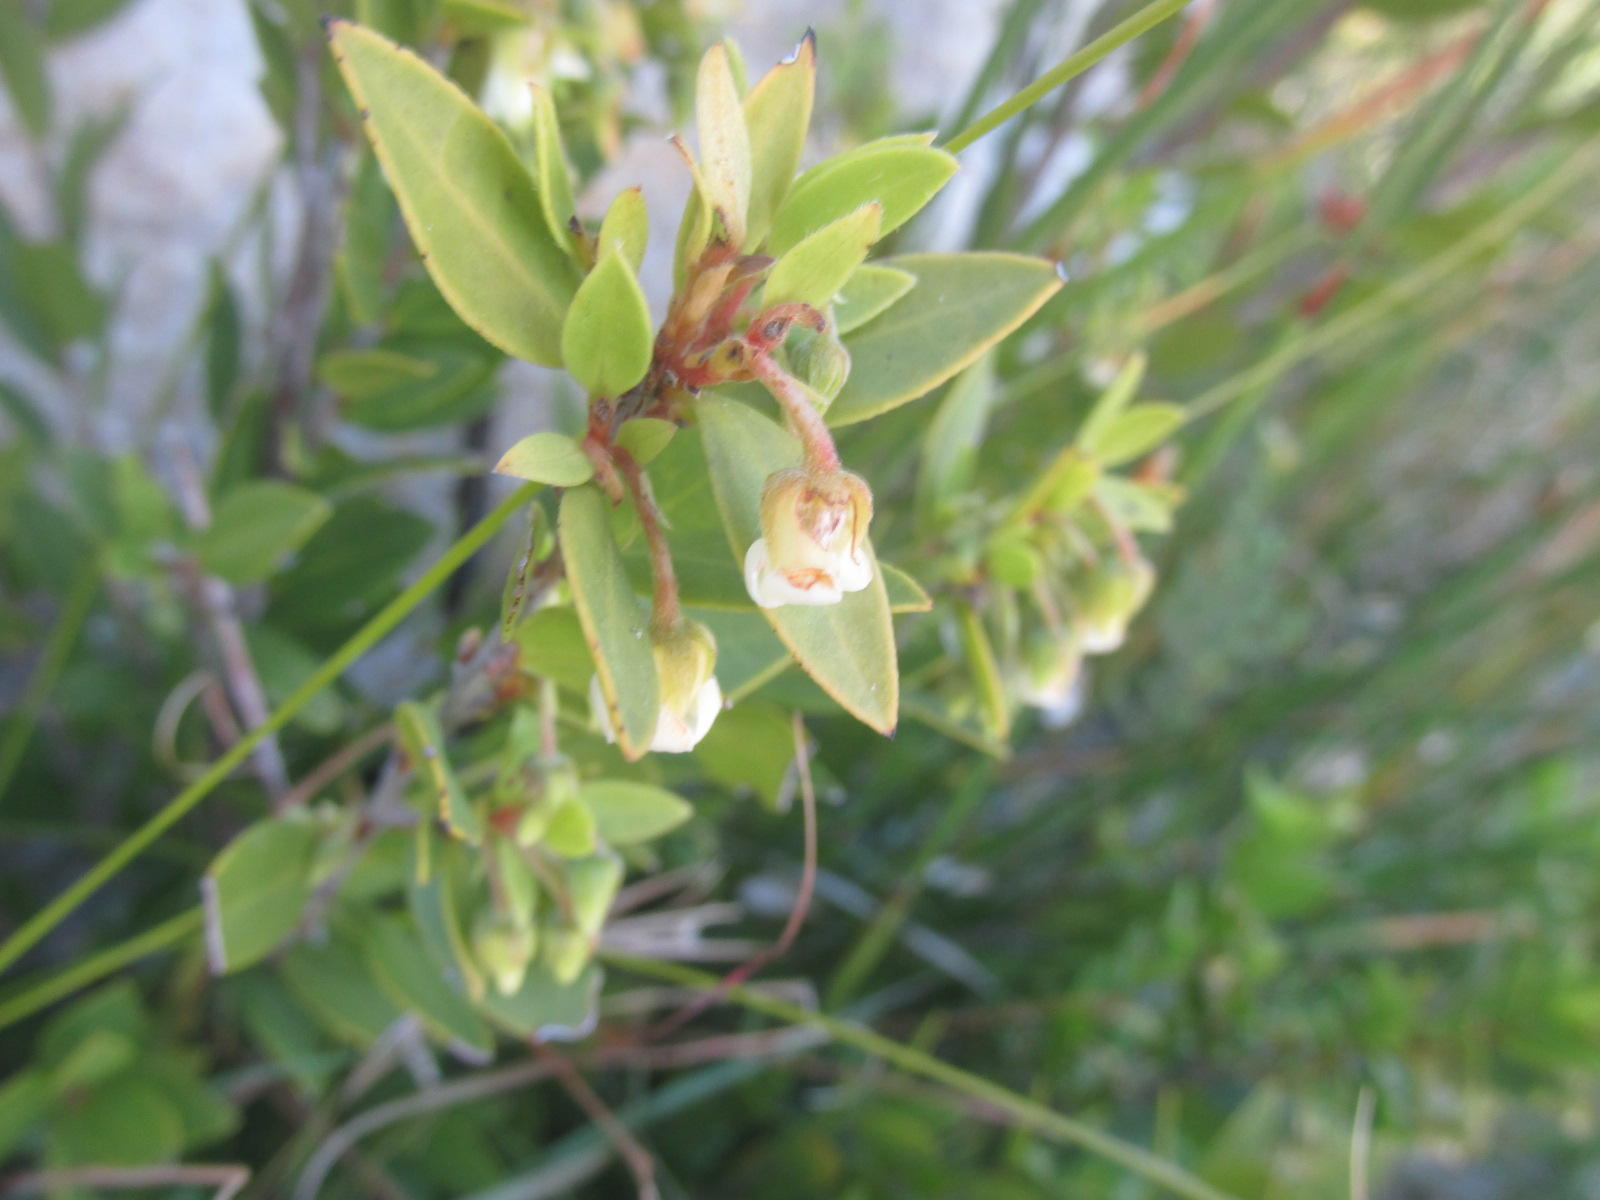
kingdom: Plantae
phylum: Tracheophyta
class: Magnoliopsida
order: Ericales
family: Ebenaceae
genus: Diospyros
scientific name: Diospyros glabra
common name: Fynbos star apple
